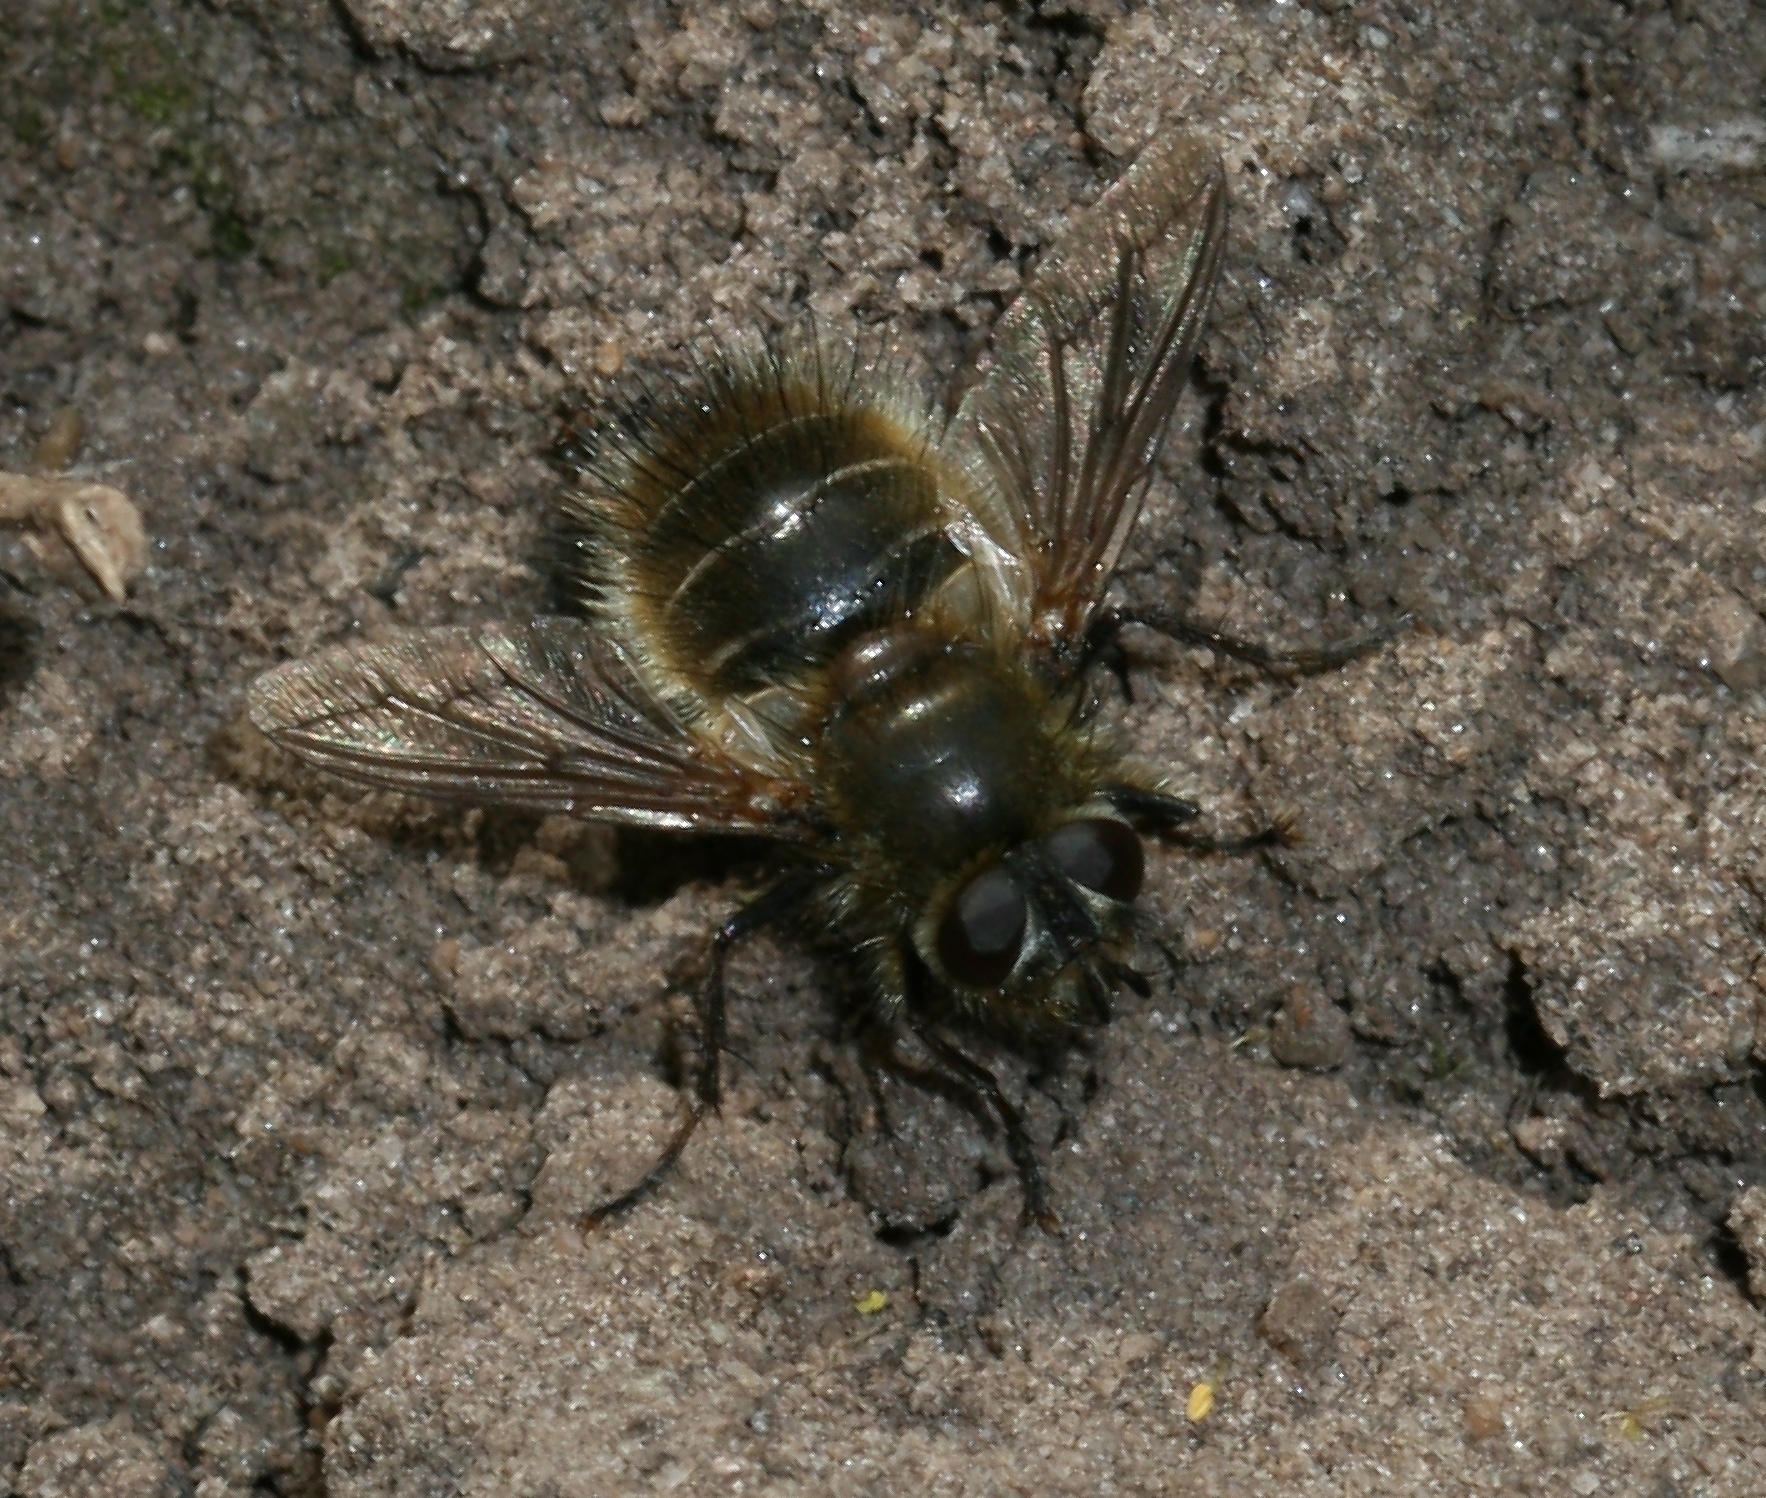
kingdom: Animalia
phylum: Arthropoda
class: Insecta
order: Diptera
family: Tachinidae
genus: Tachina
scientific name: Tachina ursina
